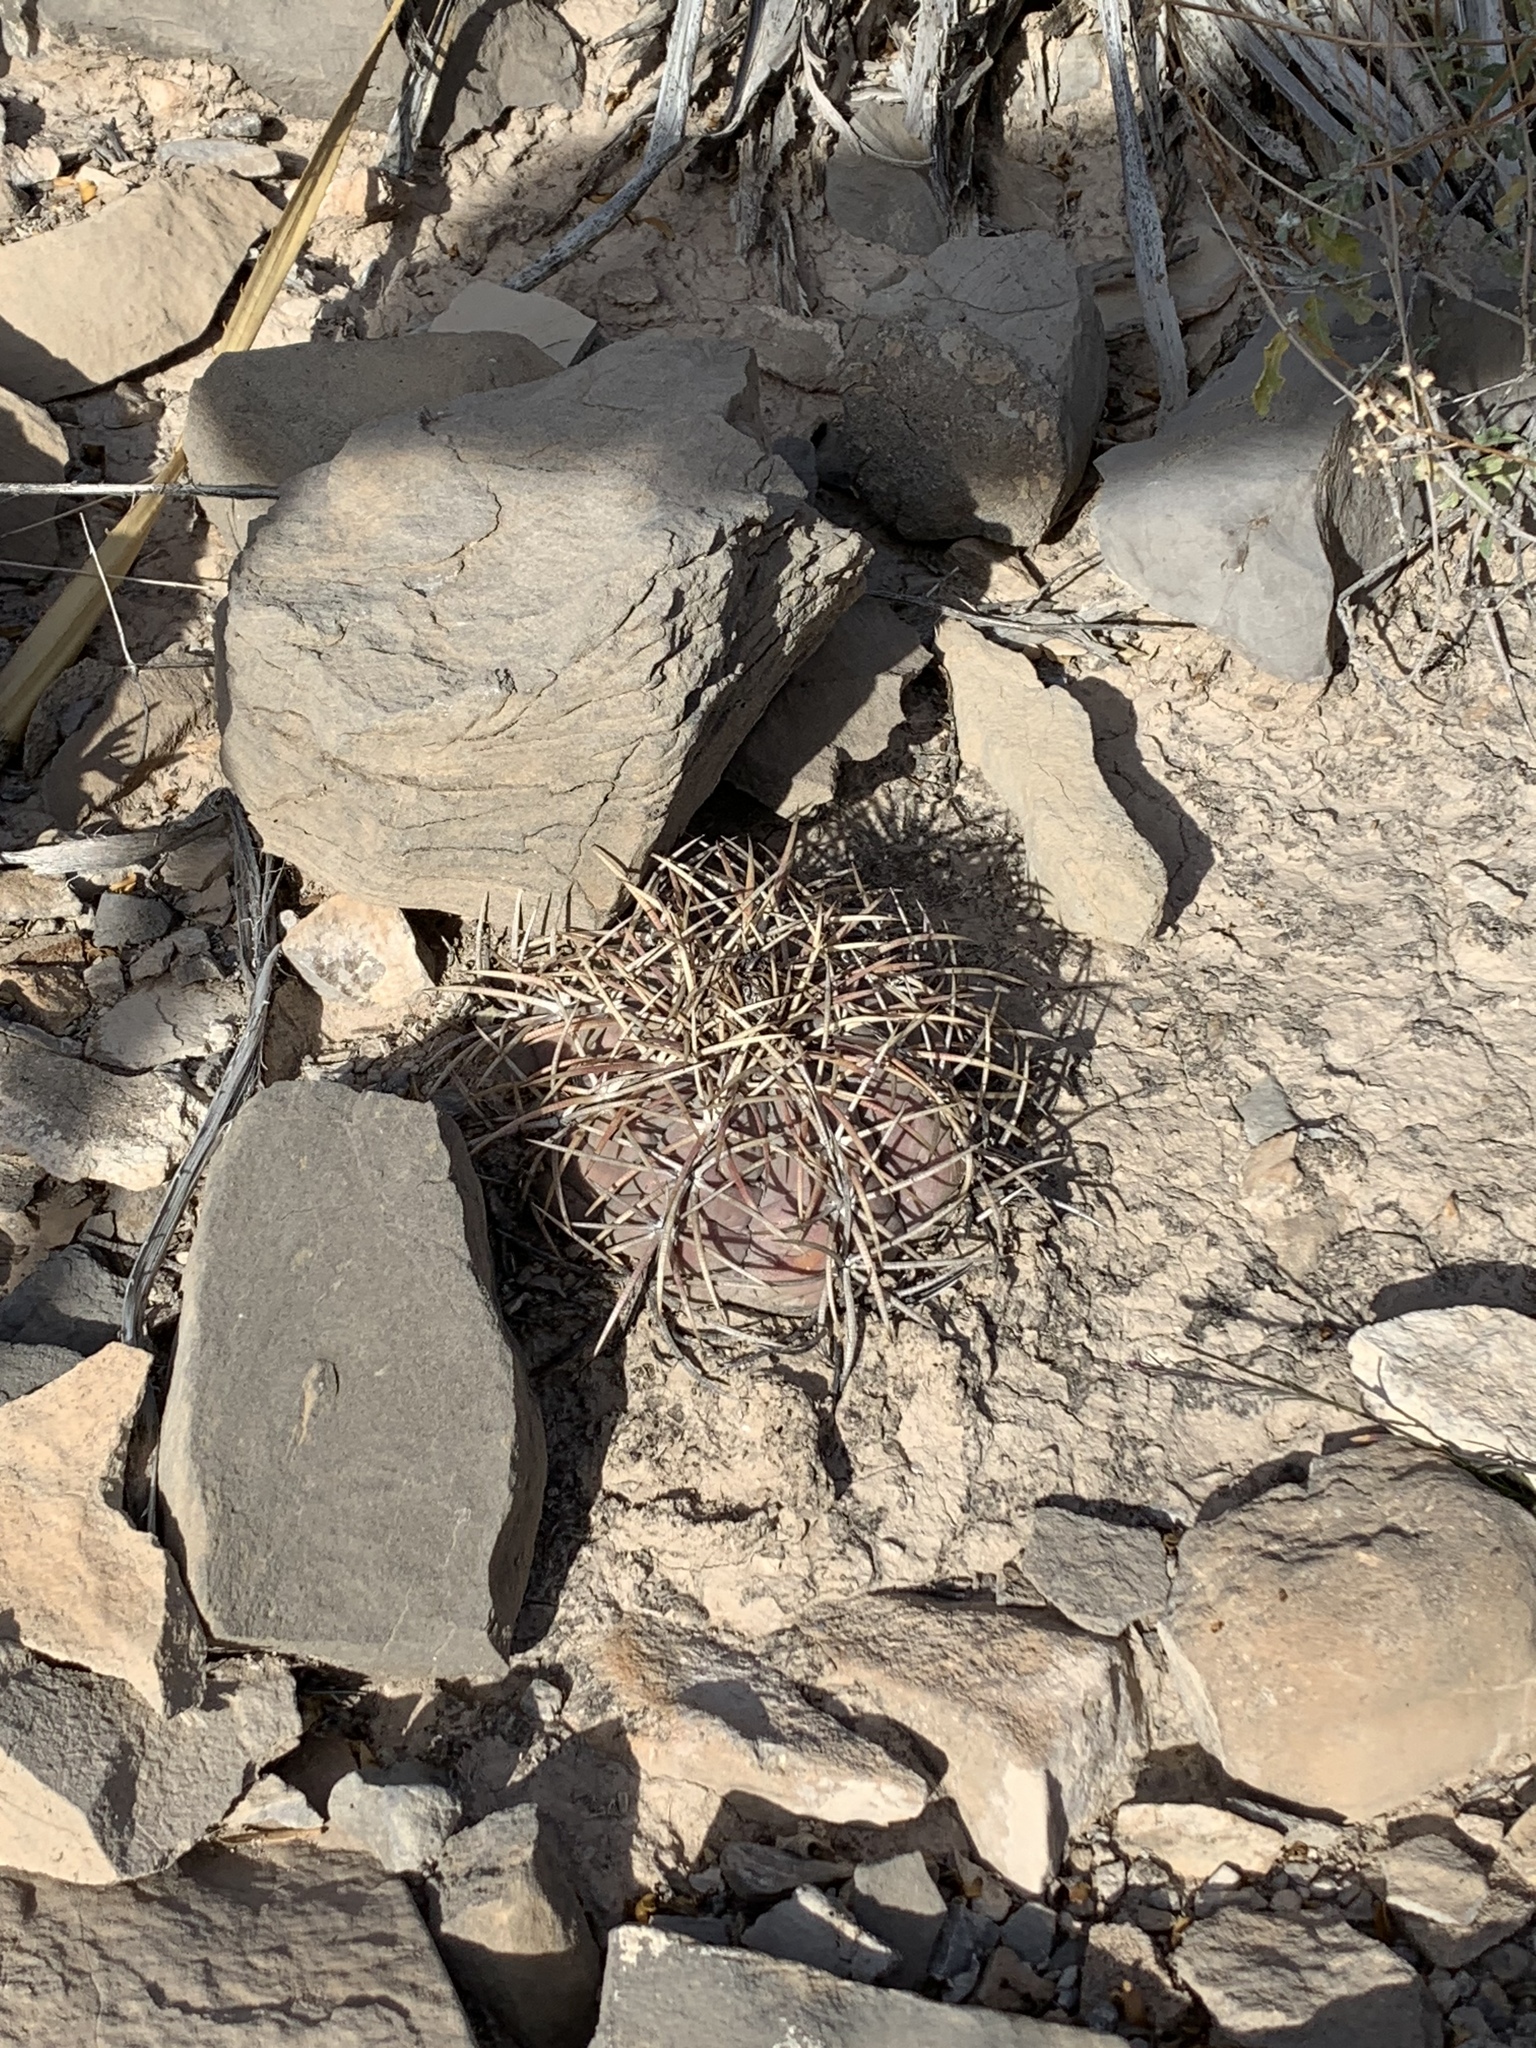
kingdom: Plantae
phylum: Tracheophyta
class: Magnoliopsida
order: Caryophyllales
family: Cactaceae
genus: Echinocactus
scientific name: Echinocactus horizonthalonius
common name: Devilshead
